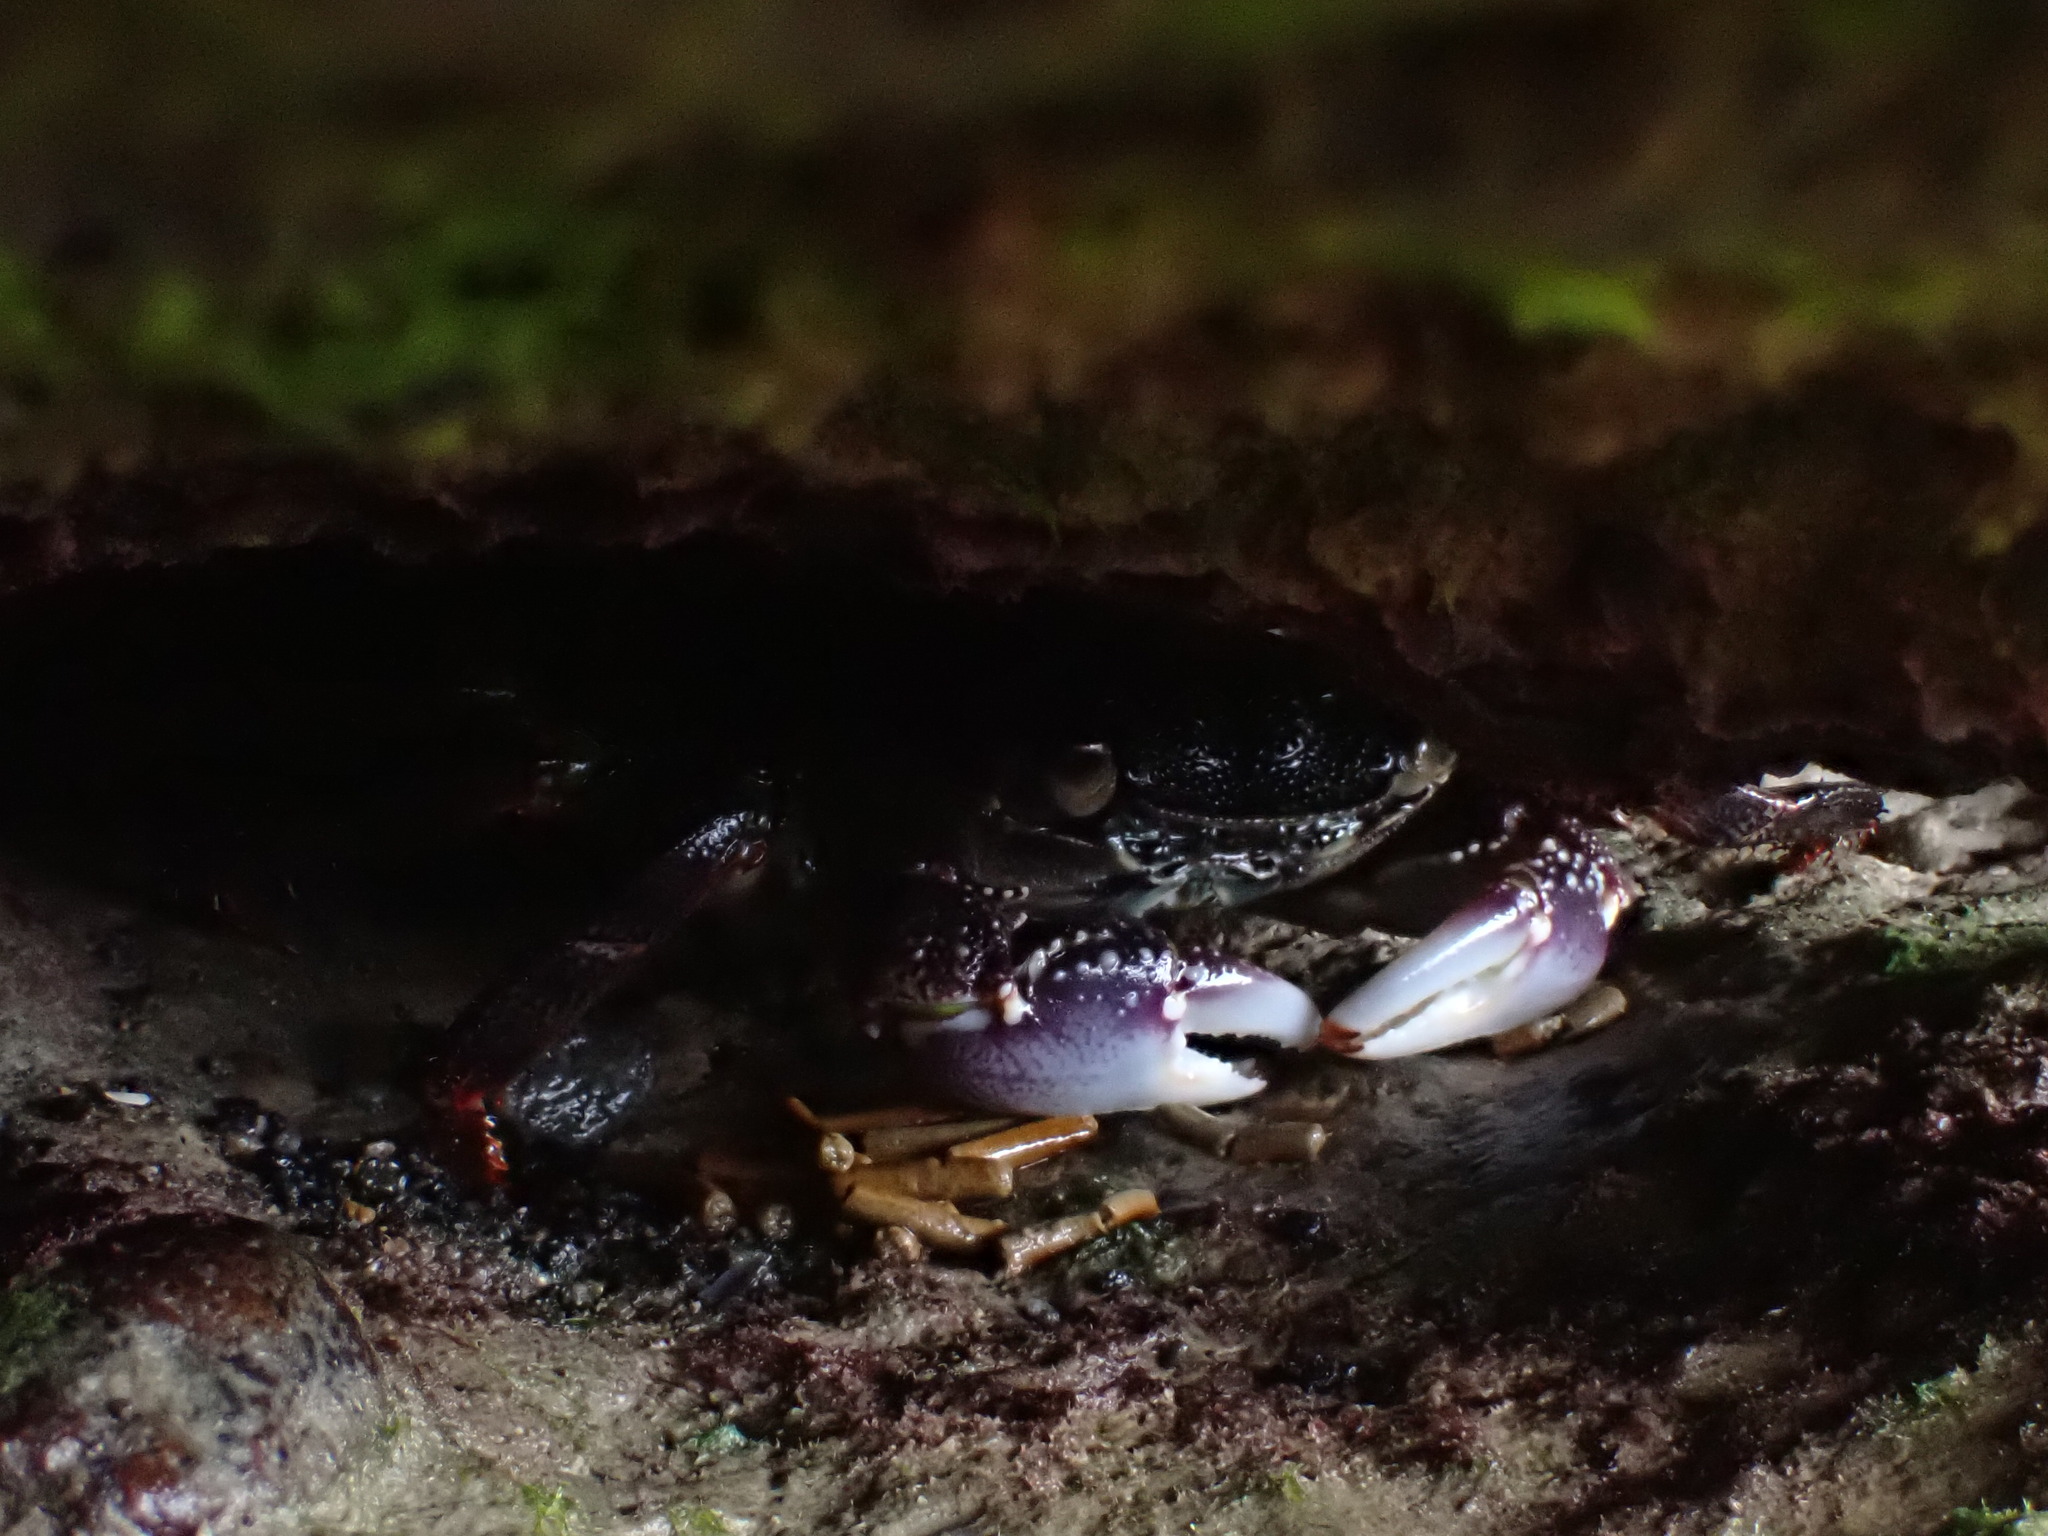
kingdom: Animalia
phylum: Arthropoda
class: Malacostraca
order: Decapoda
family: Grapsidae
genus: Leptograpsus
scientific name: Leptograpsus variegatus
